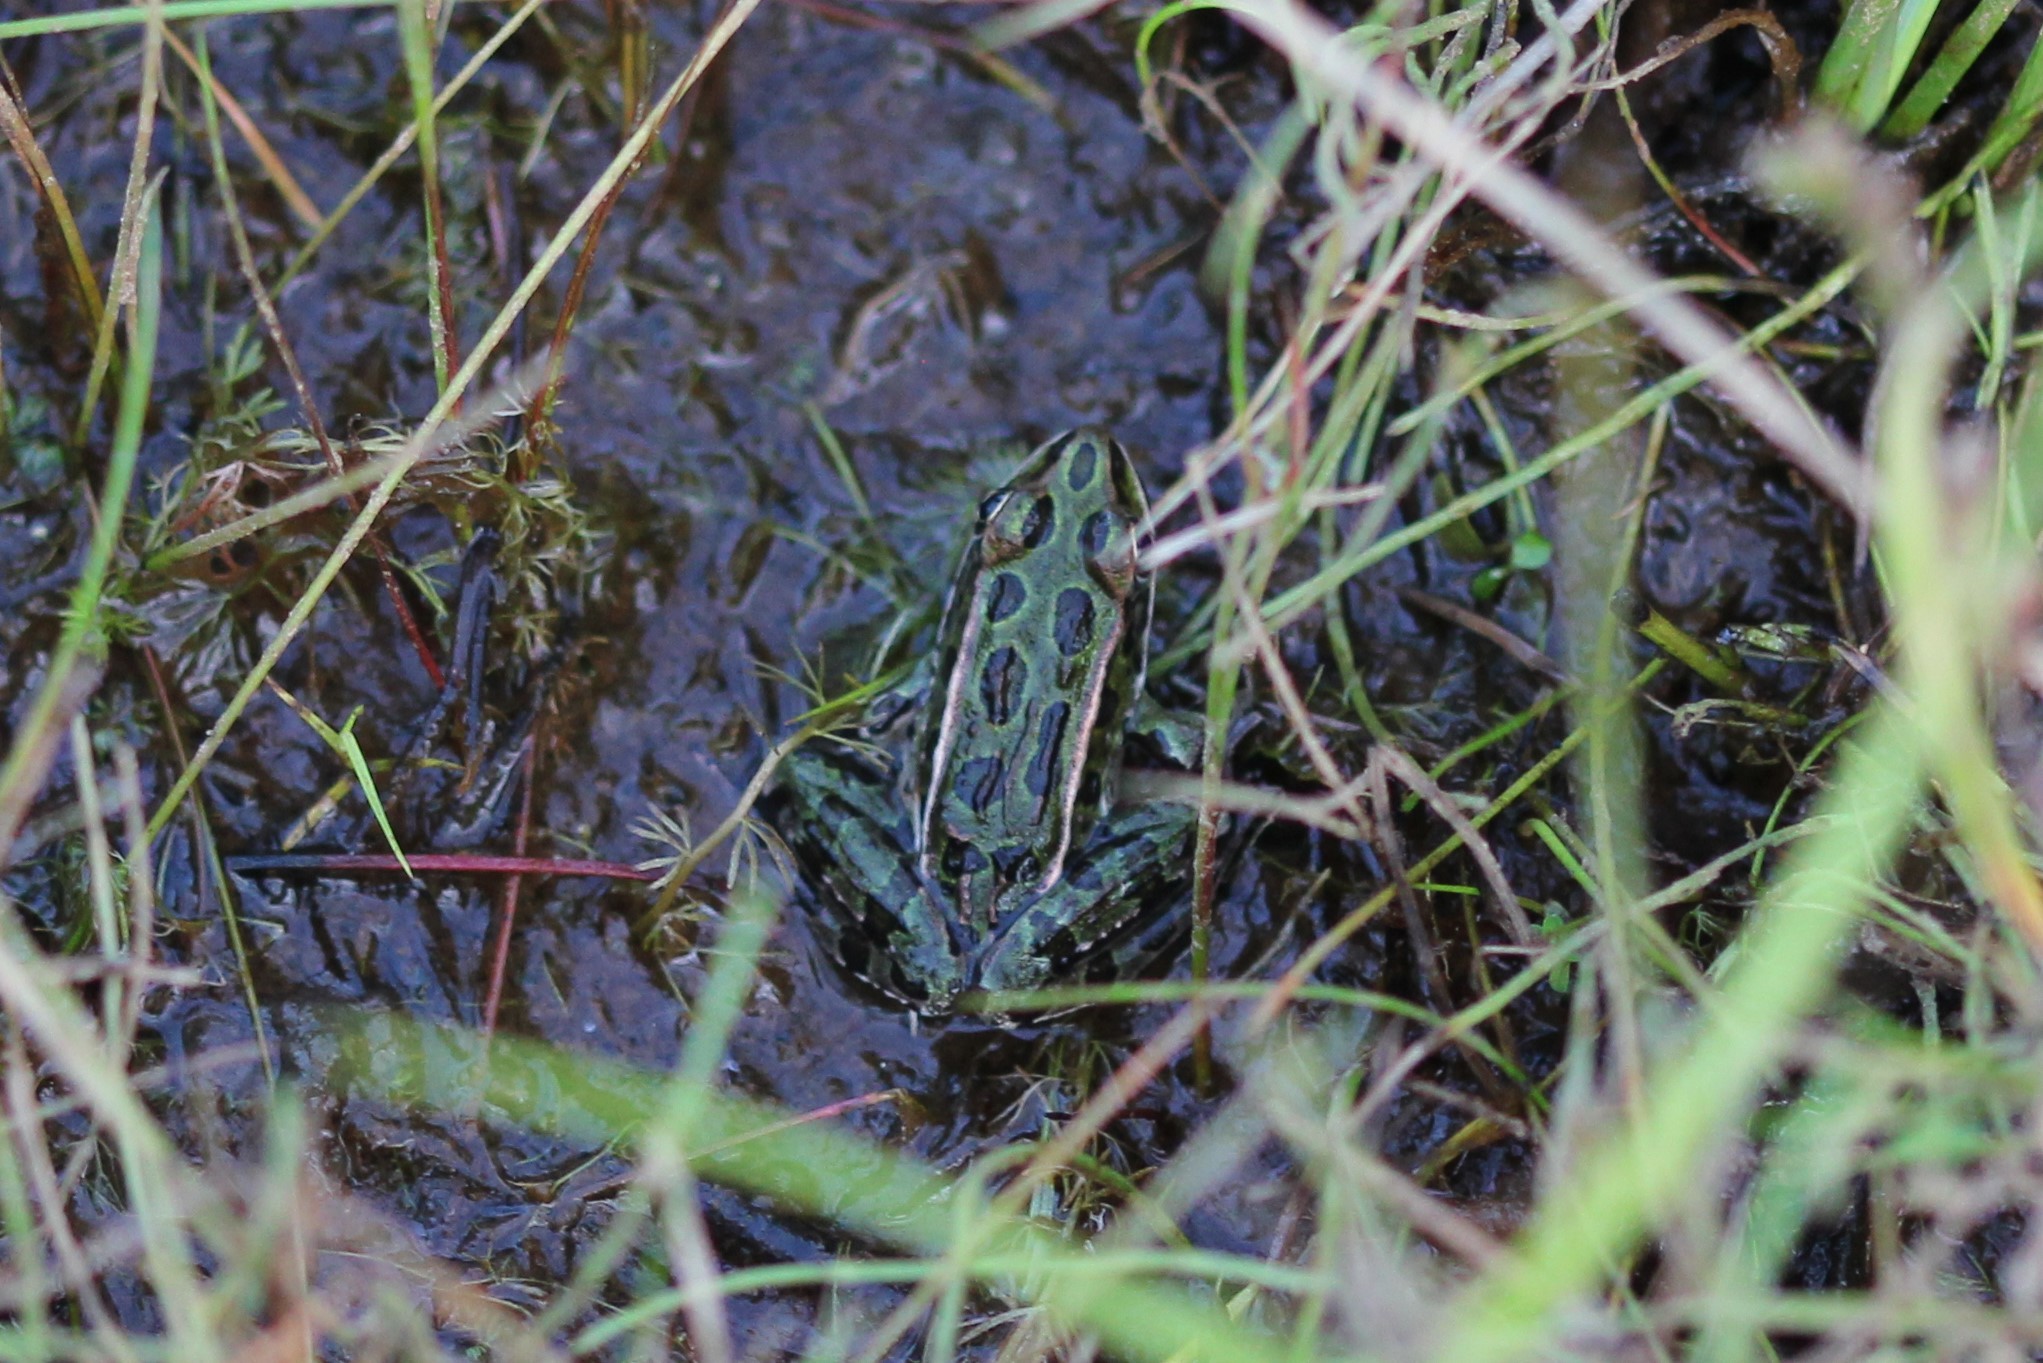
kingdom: Animalia
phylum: Chordata
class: Amphibia
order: Anura
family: Ranidae
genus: Lithobates
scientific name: Lithobates pipiens
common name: Northern leopard frog
